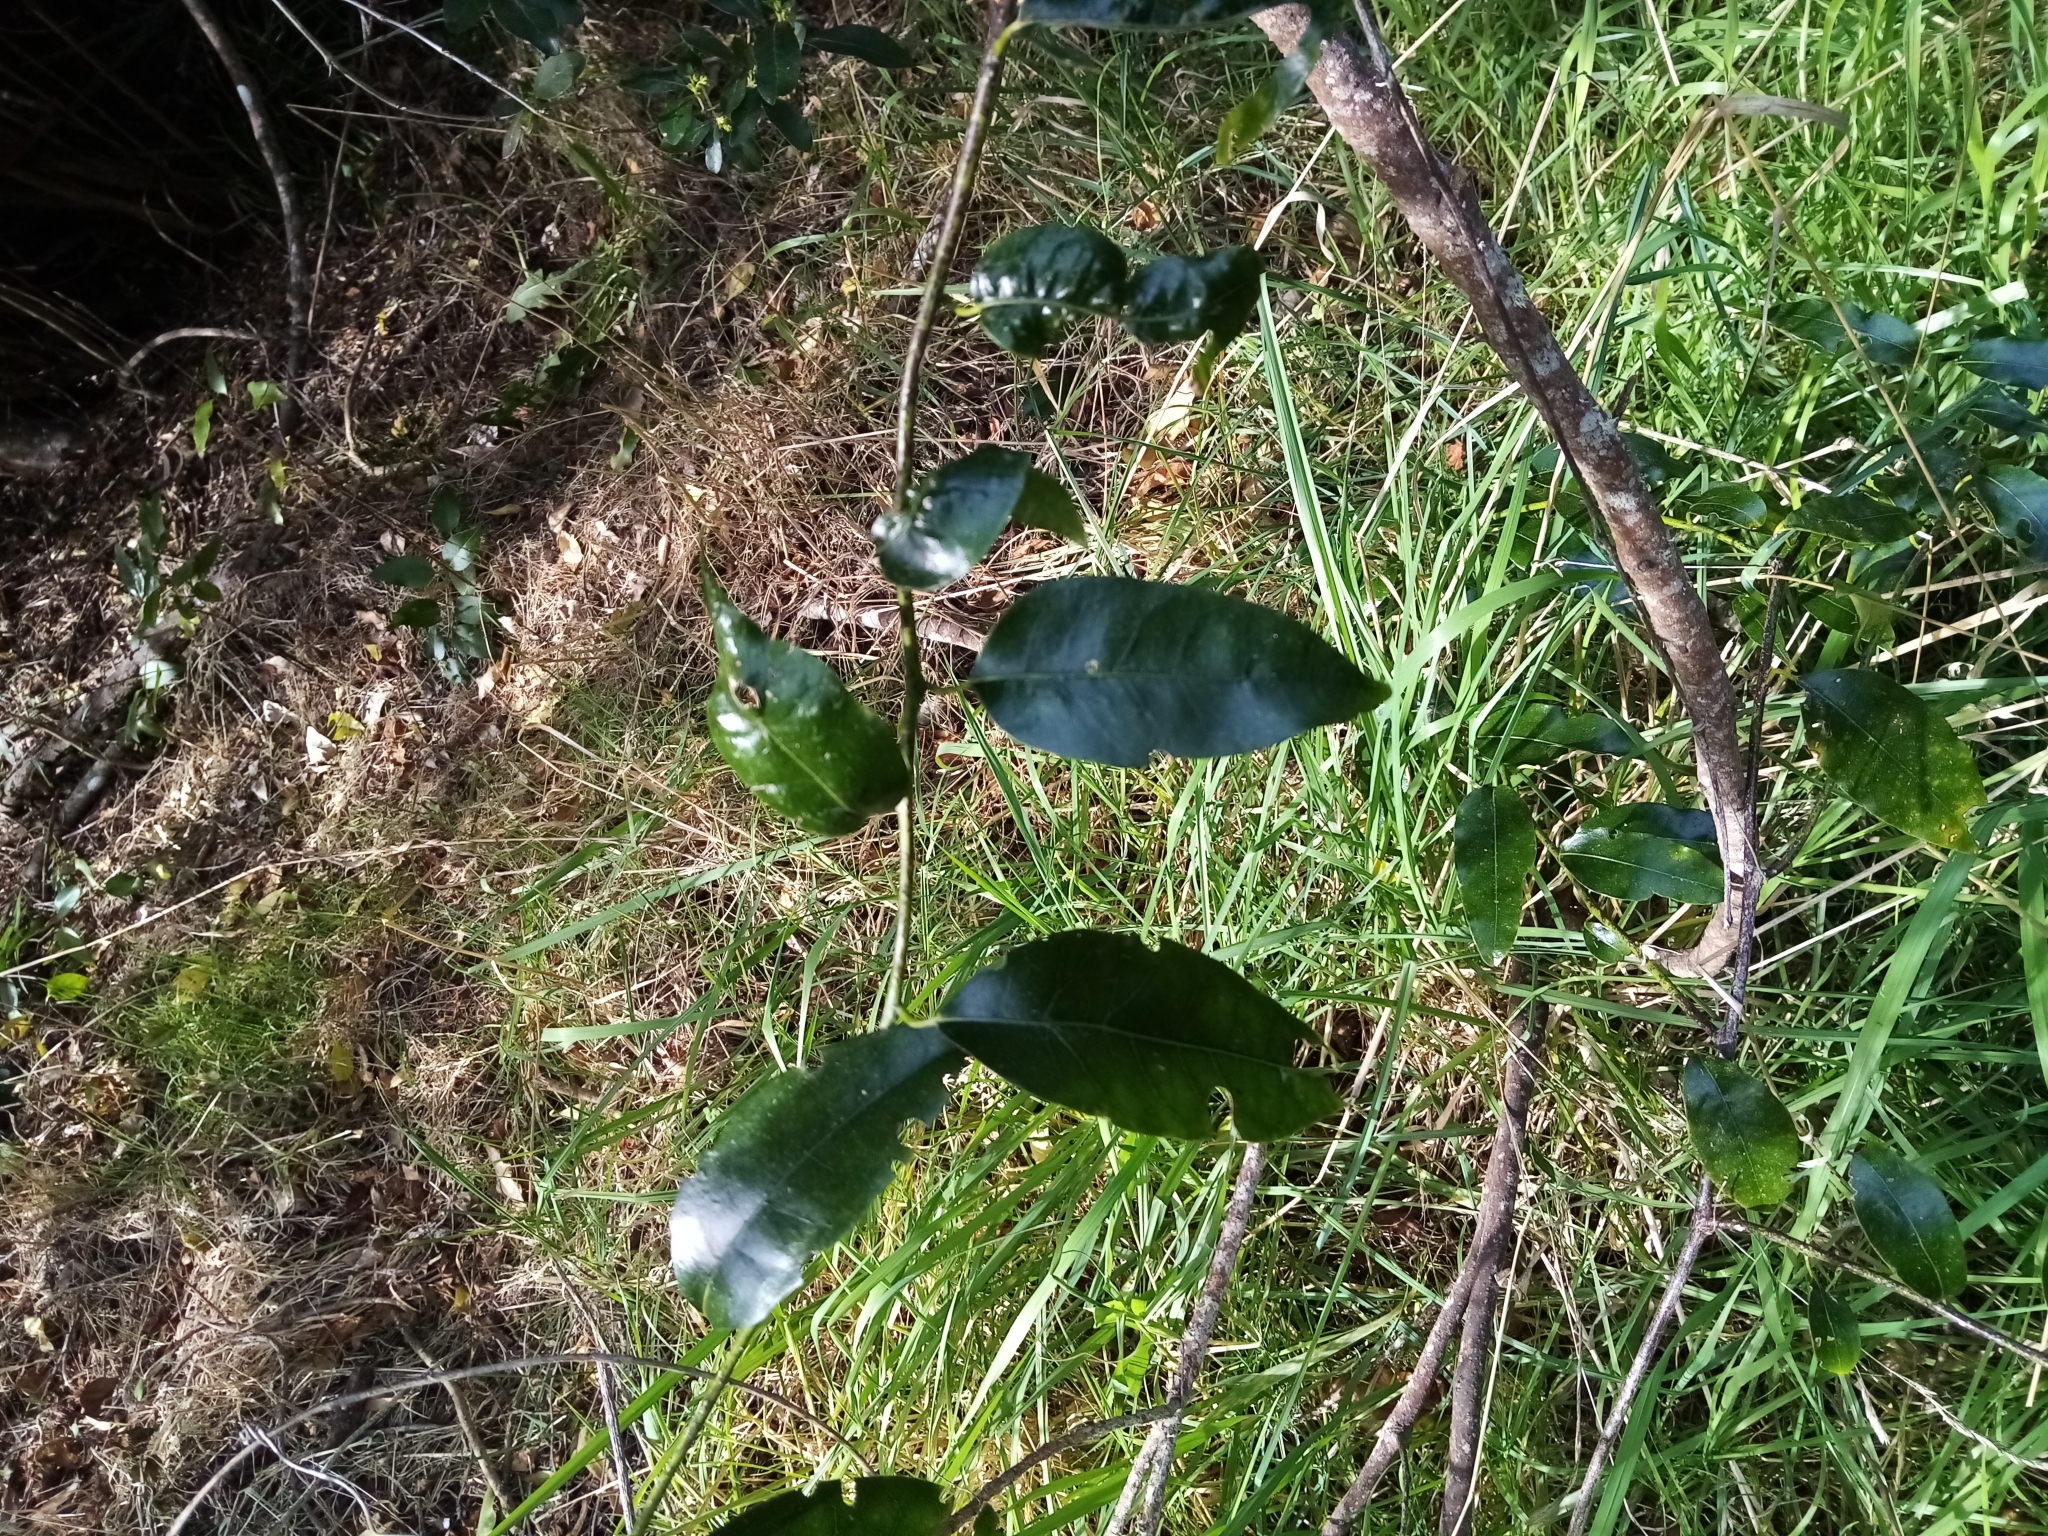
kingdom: Plantae
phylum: Tracheophyta
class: Magnoliopsida
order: Malpighiales
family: Passifloraceae
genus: Passiflora
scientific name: Passiflora tetrandra
